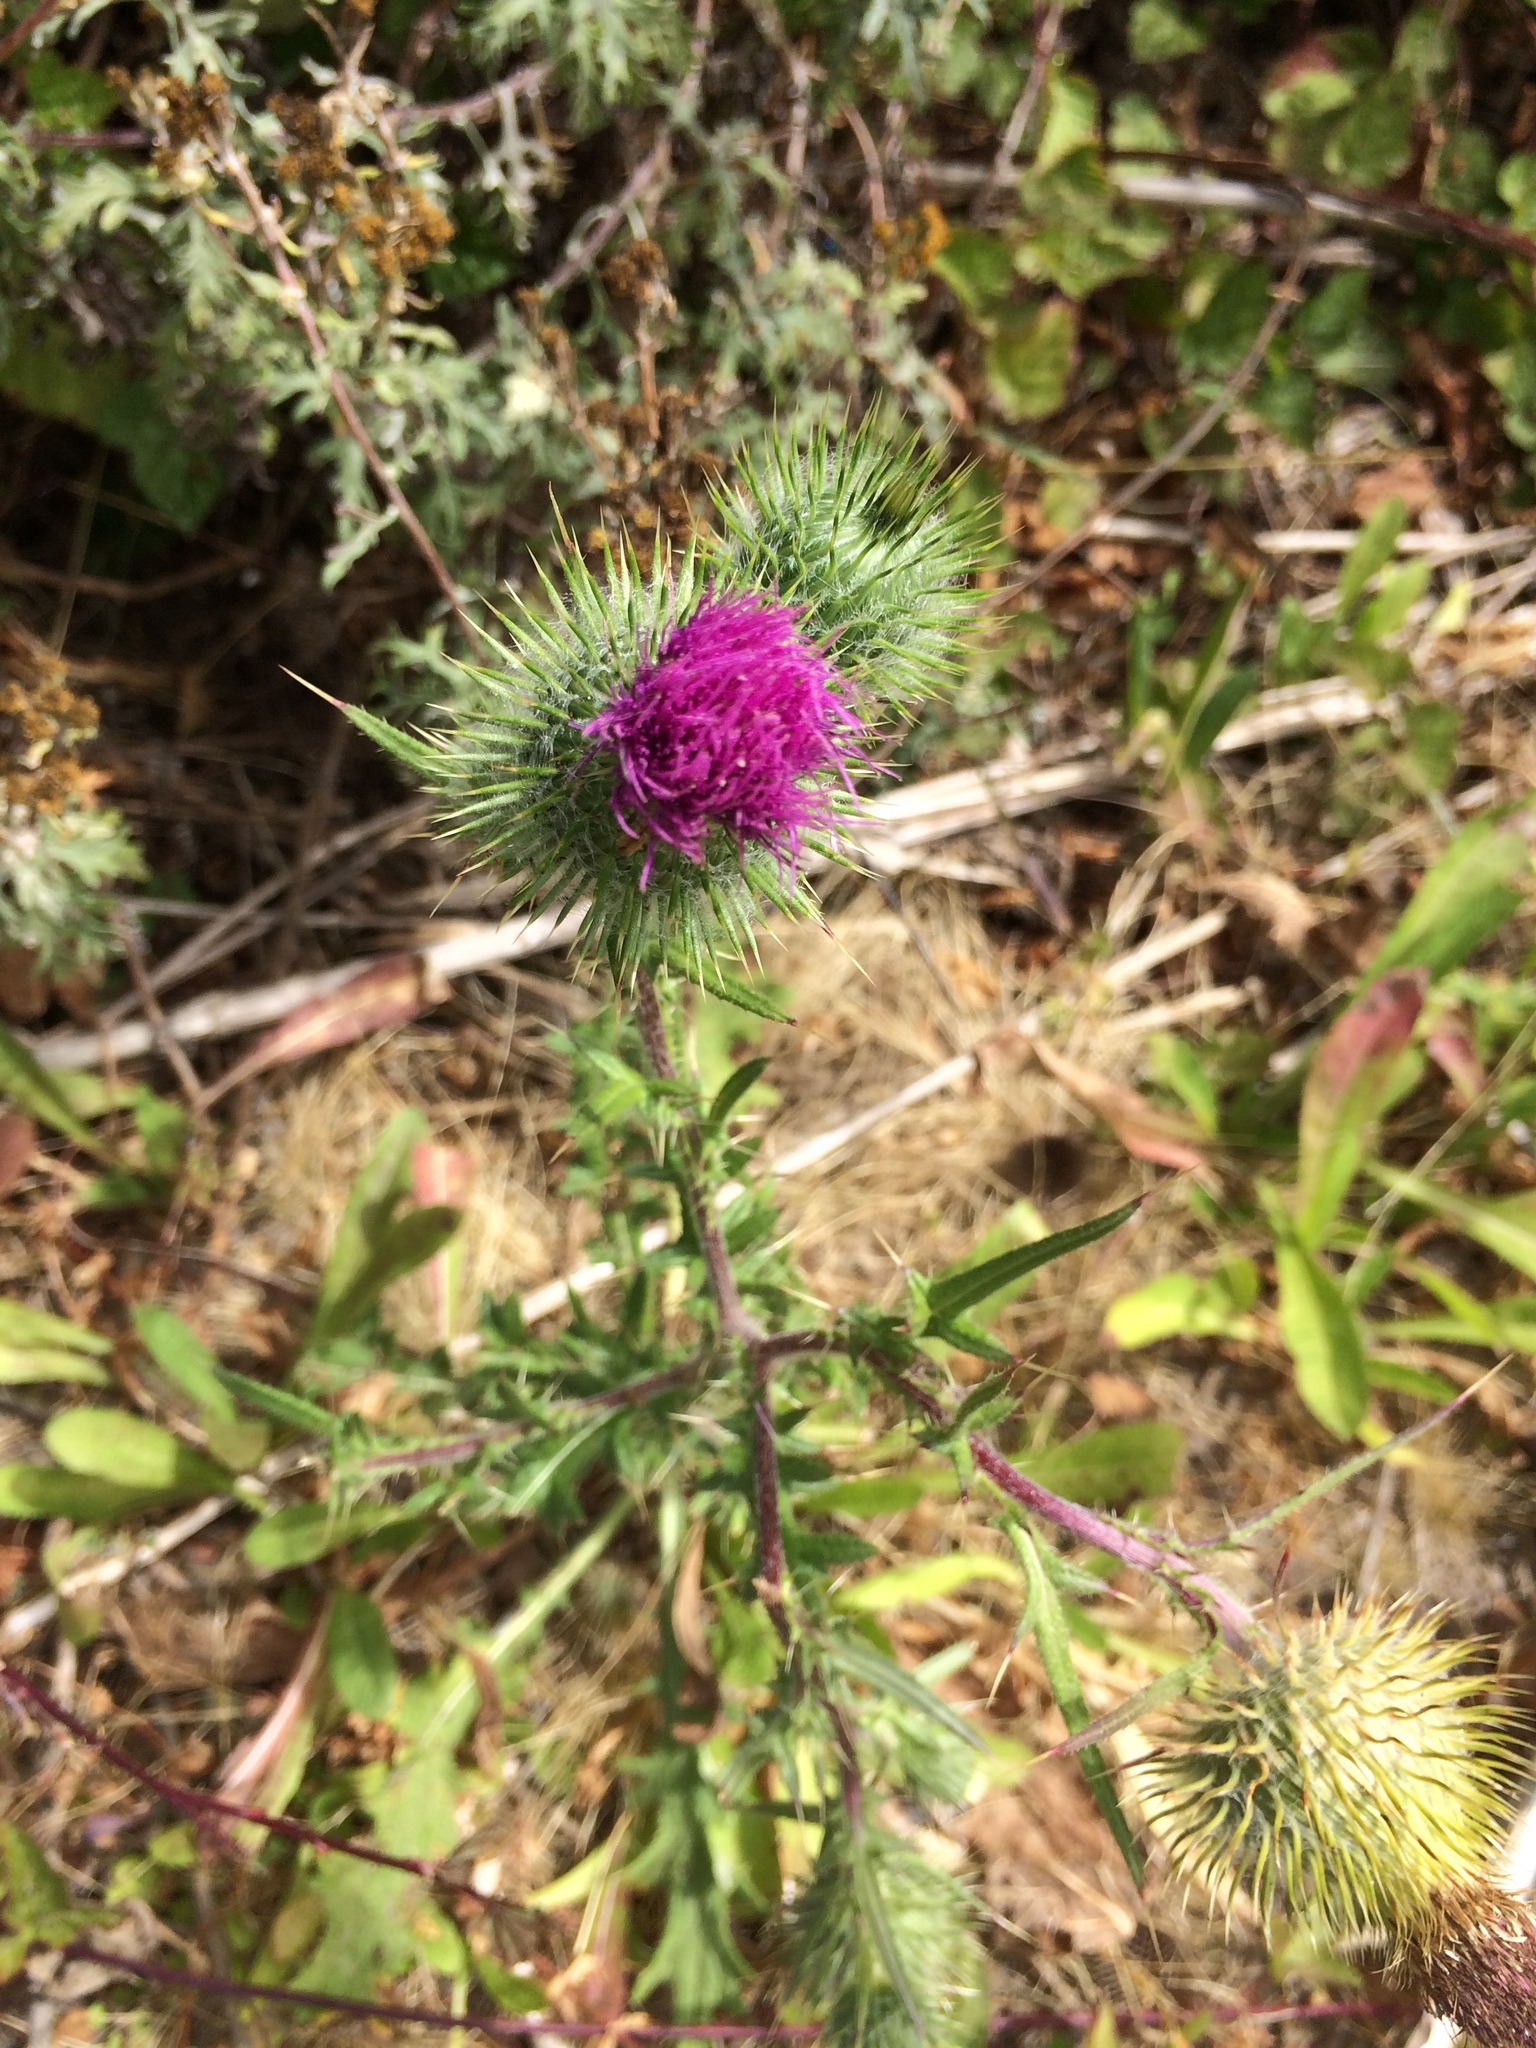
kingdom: Plantae
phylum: Tracheophyta
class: Magnoliopsida
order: Asterales
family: Asteraceae
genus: Cirsium
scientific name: Cirsium vulgare
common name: Bull thistle
